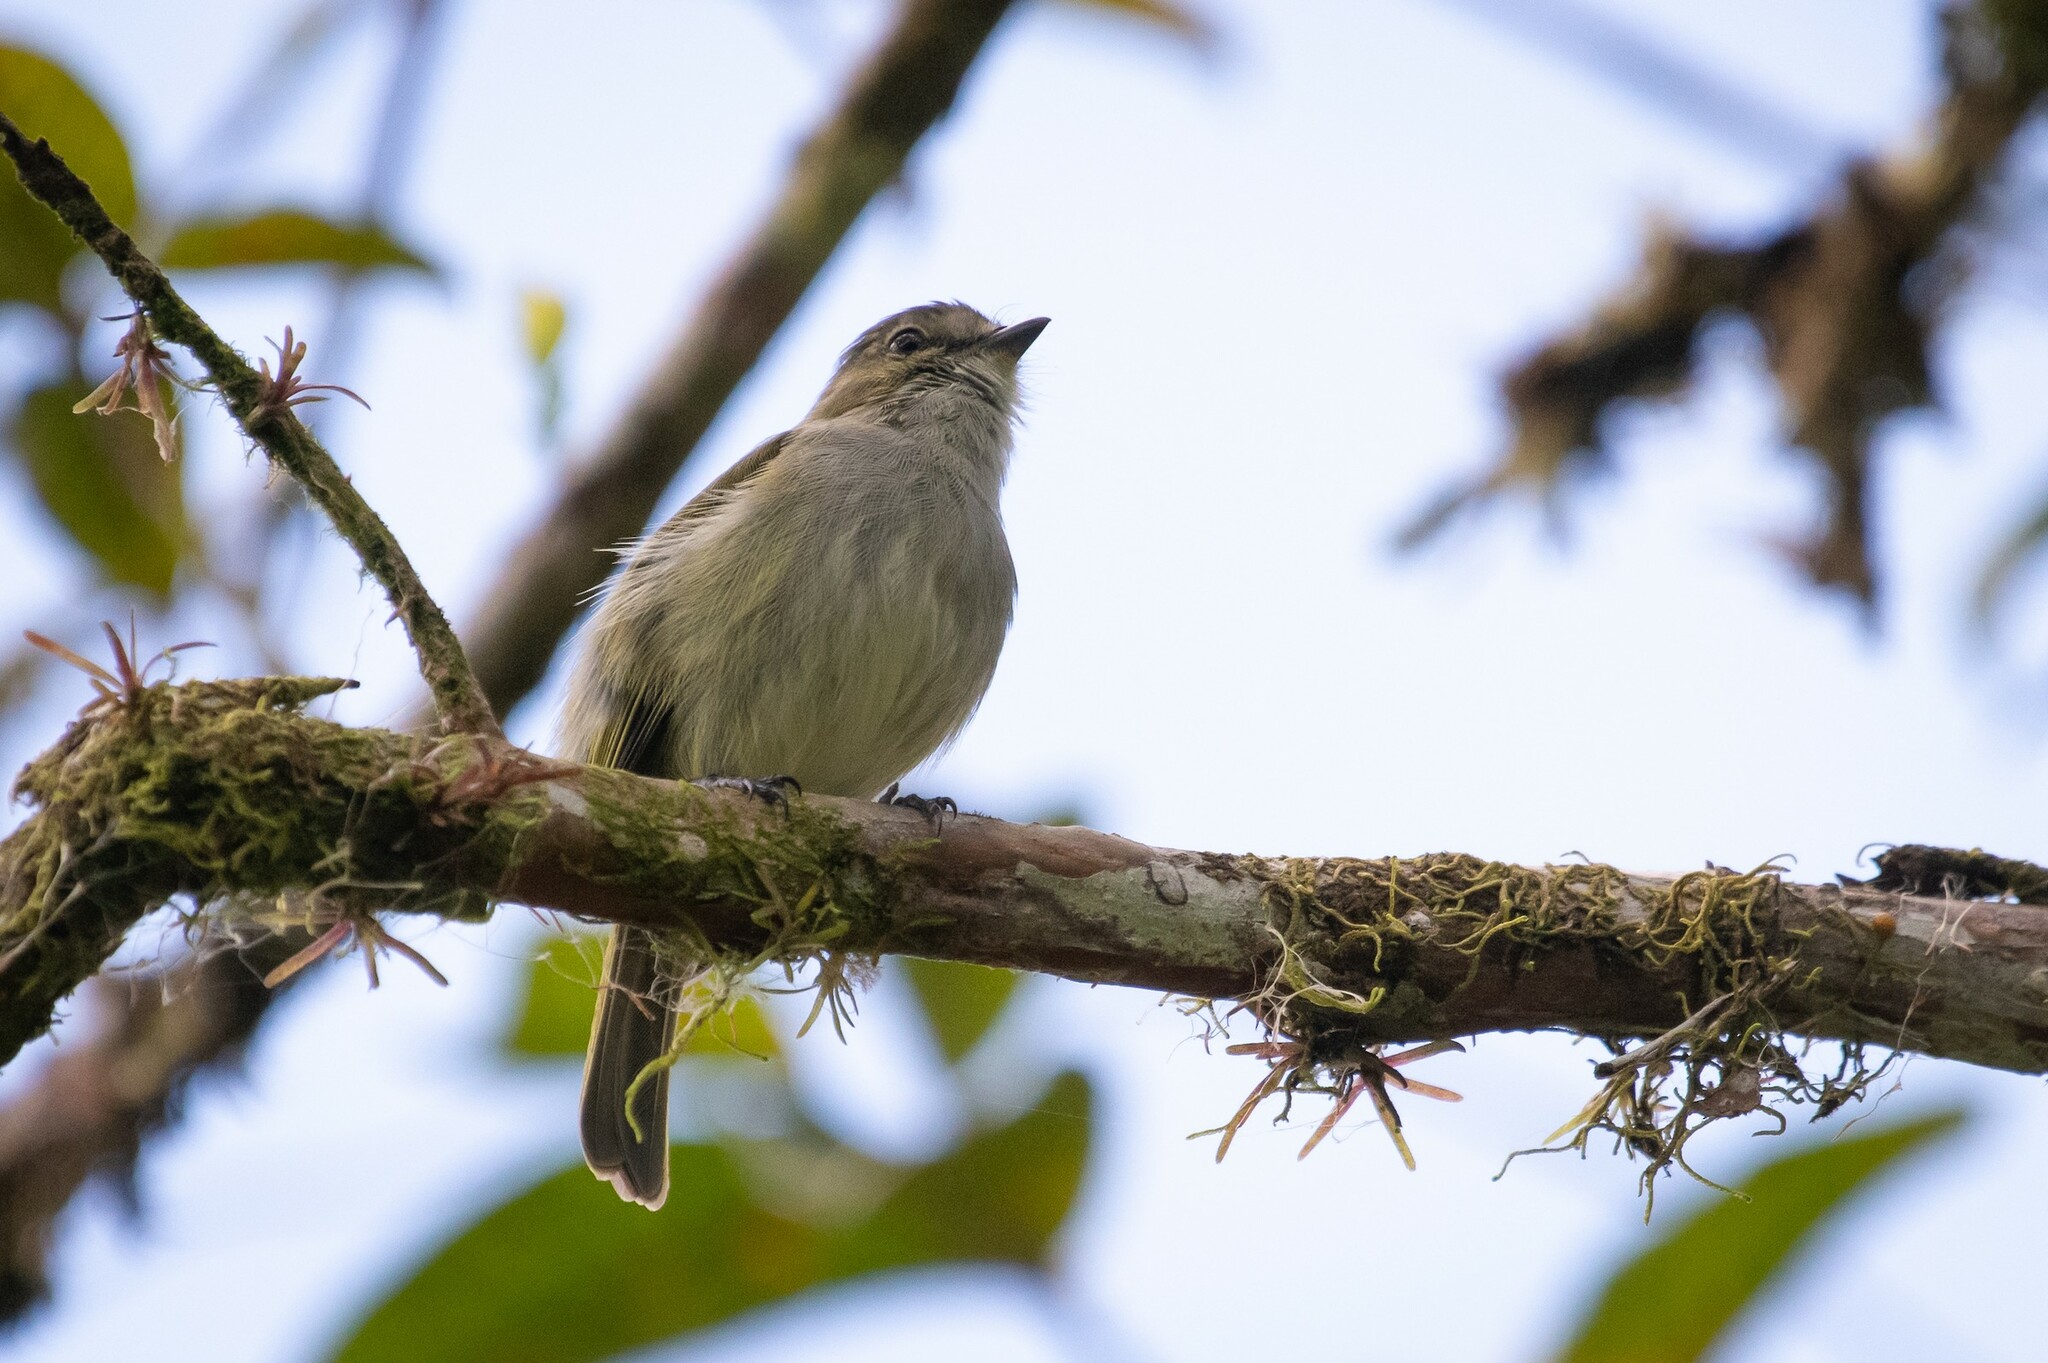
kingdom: Animalia
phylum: Chordata
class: Aves
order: Passeriformes
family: Tyrannidae
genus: Zimmerius
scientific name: Zimmerius vilissimus
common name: Paltry tyrannulet
